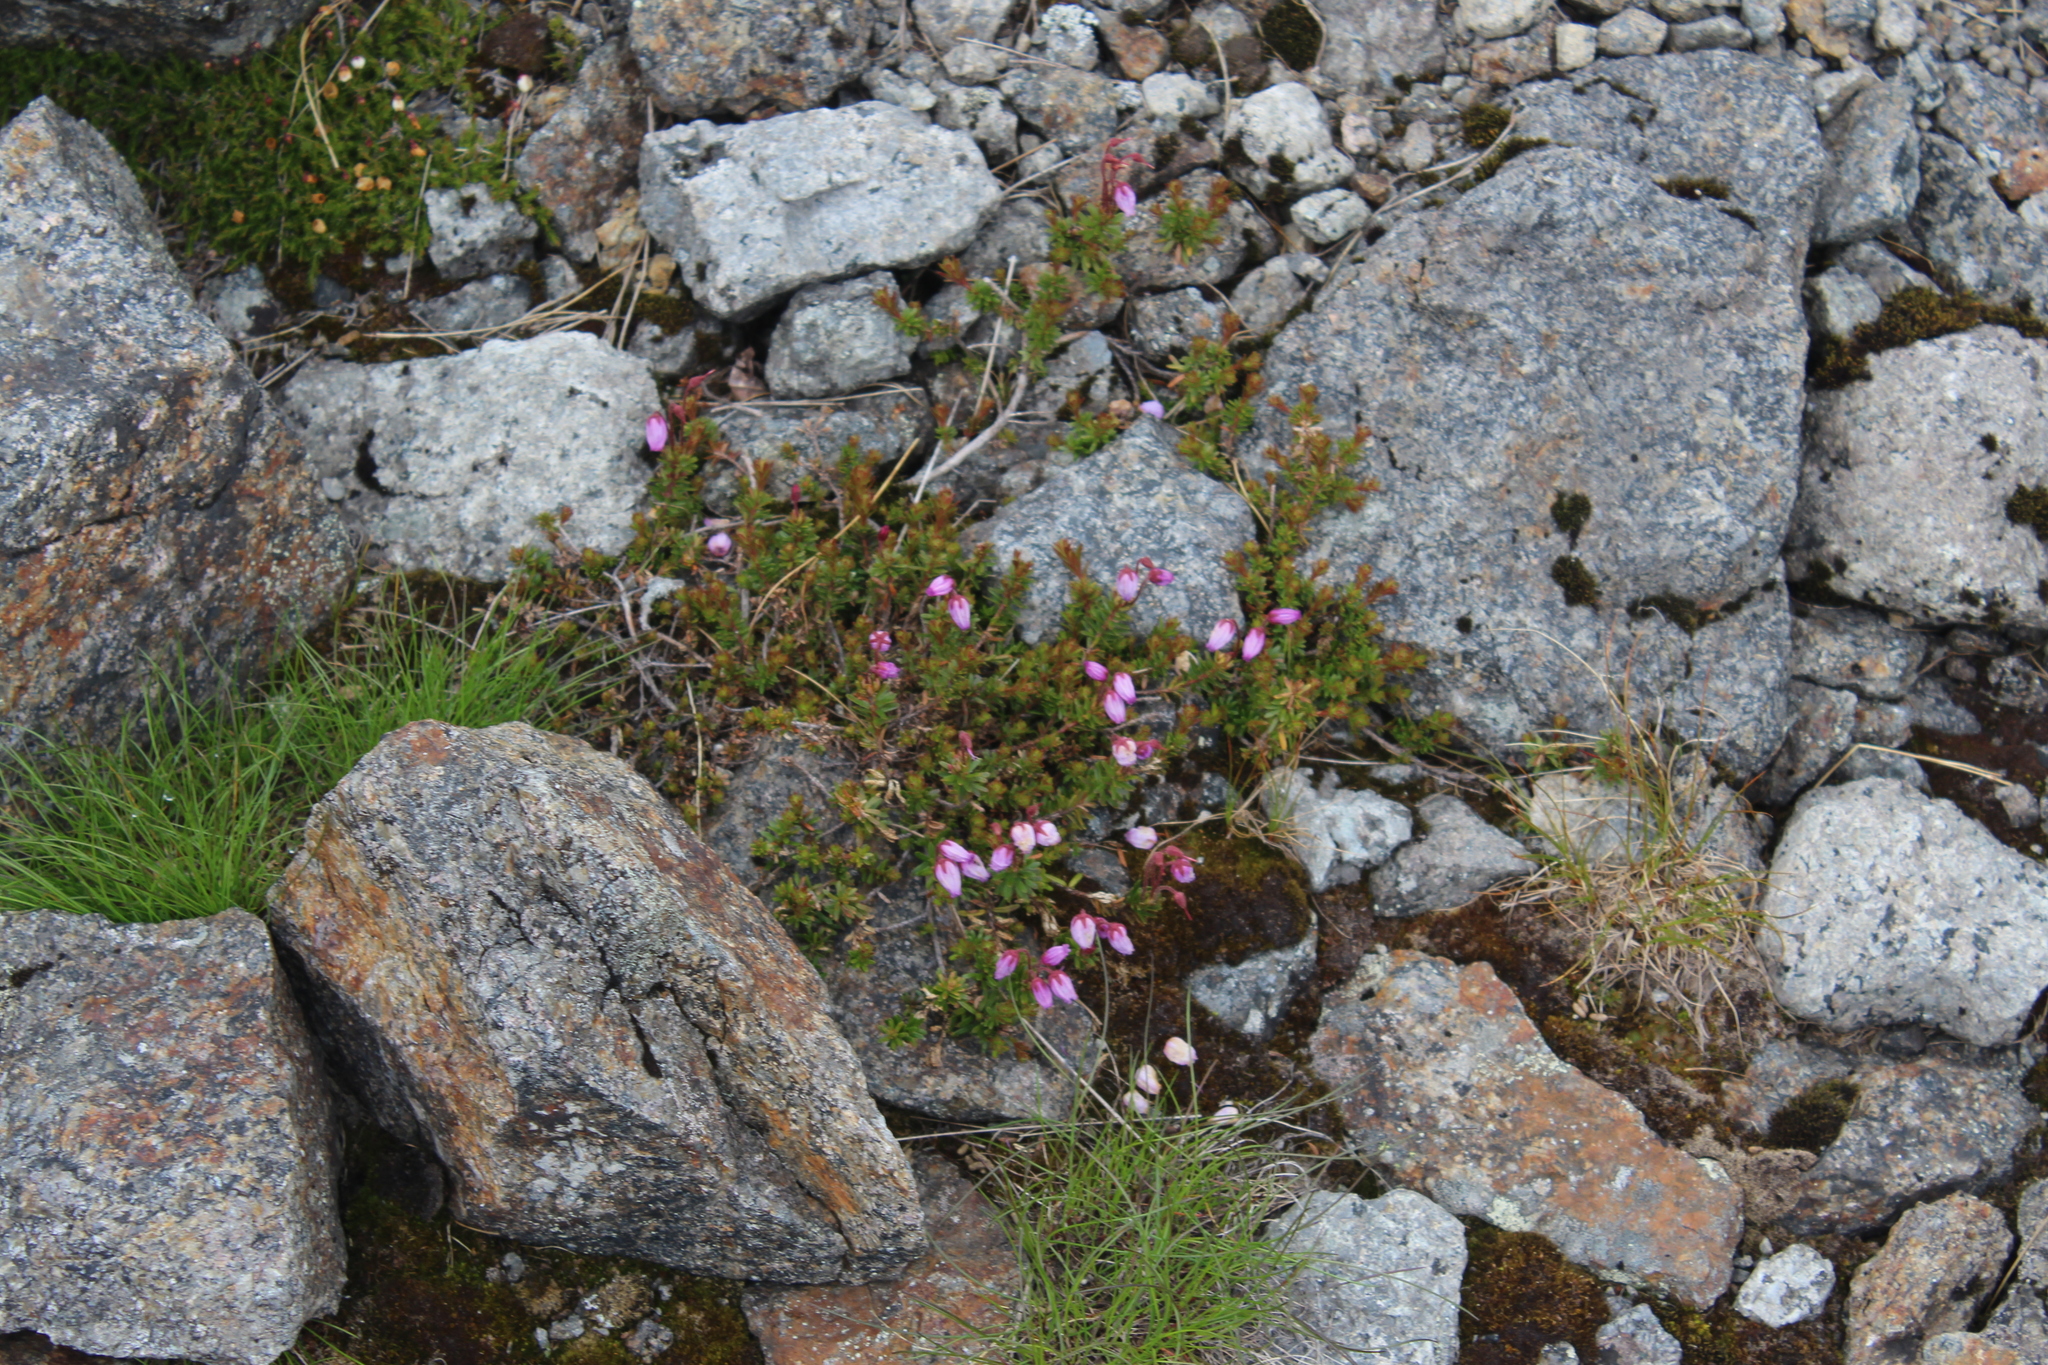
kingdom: Plantae
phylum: Tracheophyta
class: Magnoliopsida
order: Ericales
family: Ericaceae
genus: Phyllodoce
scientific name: Phyllodoce caerulea
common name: Blue heath
